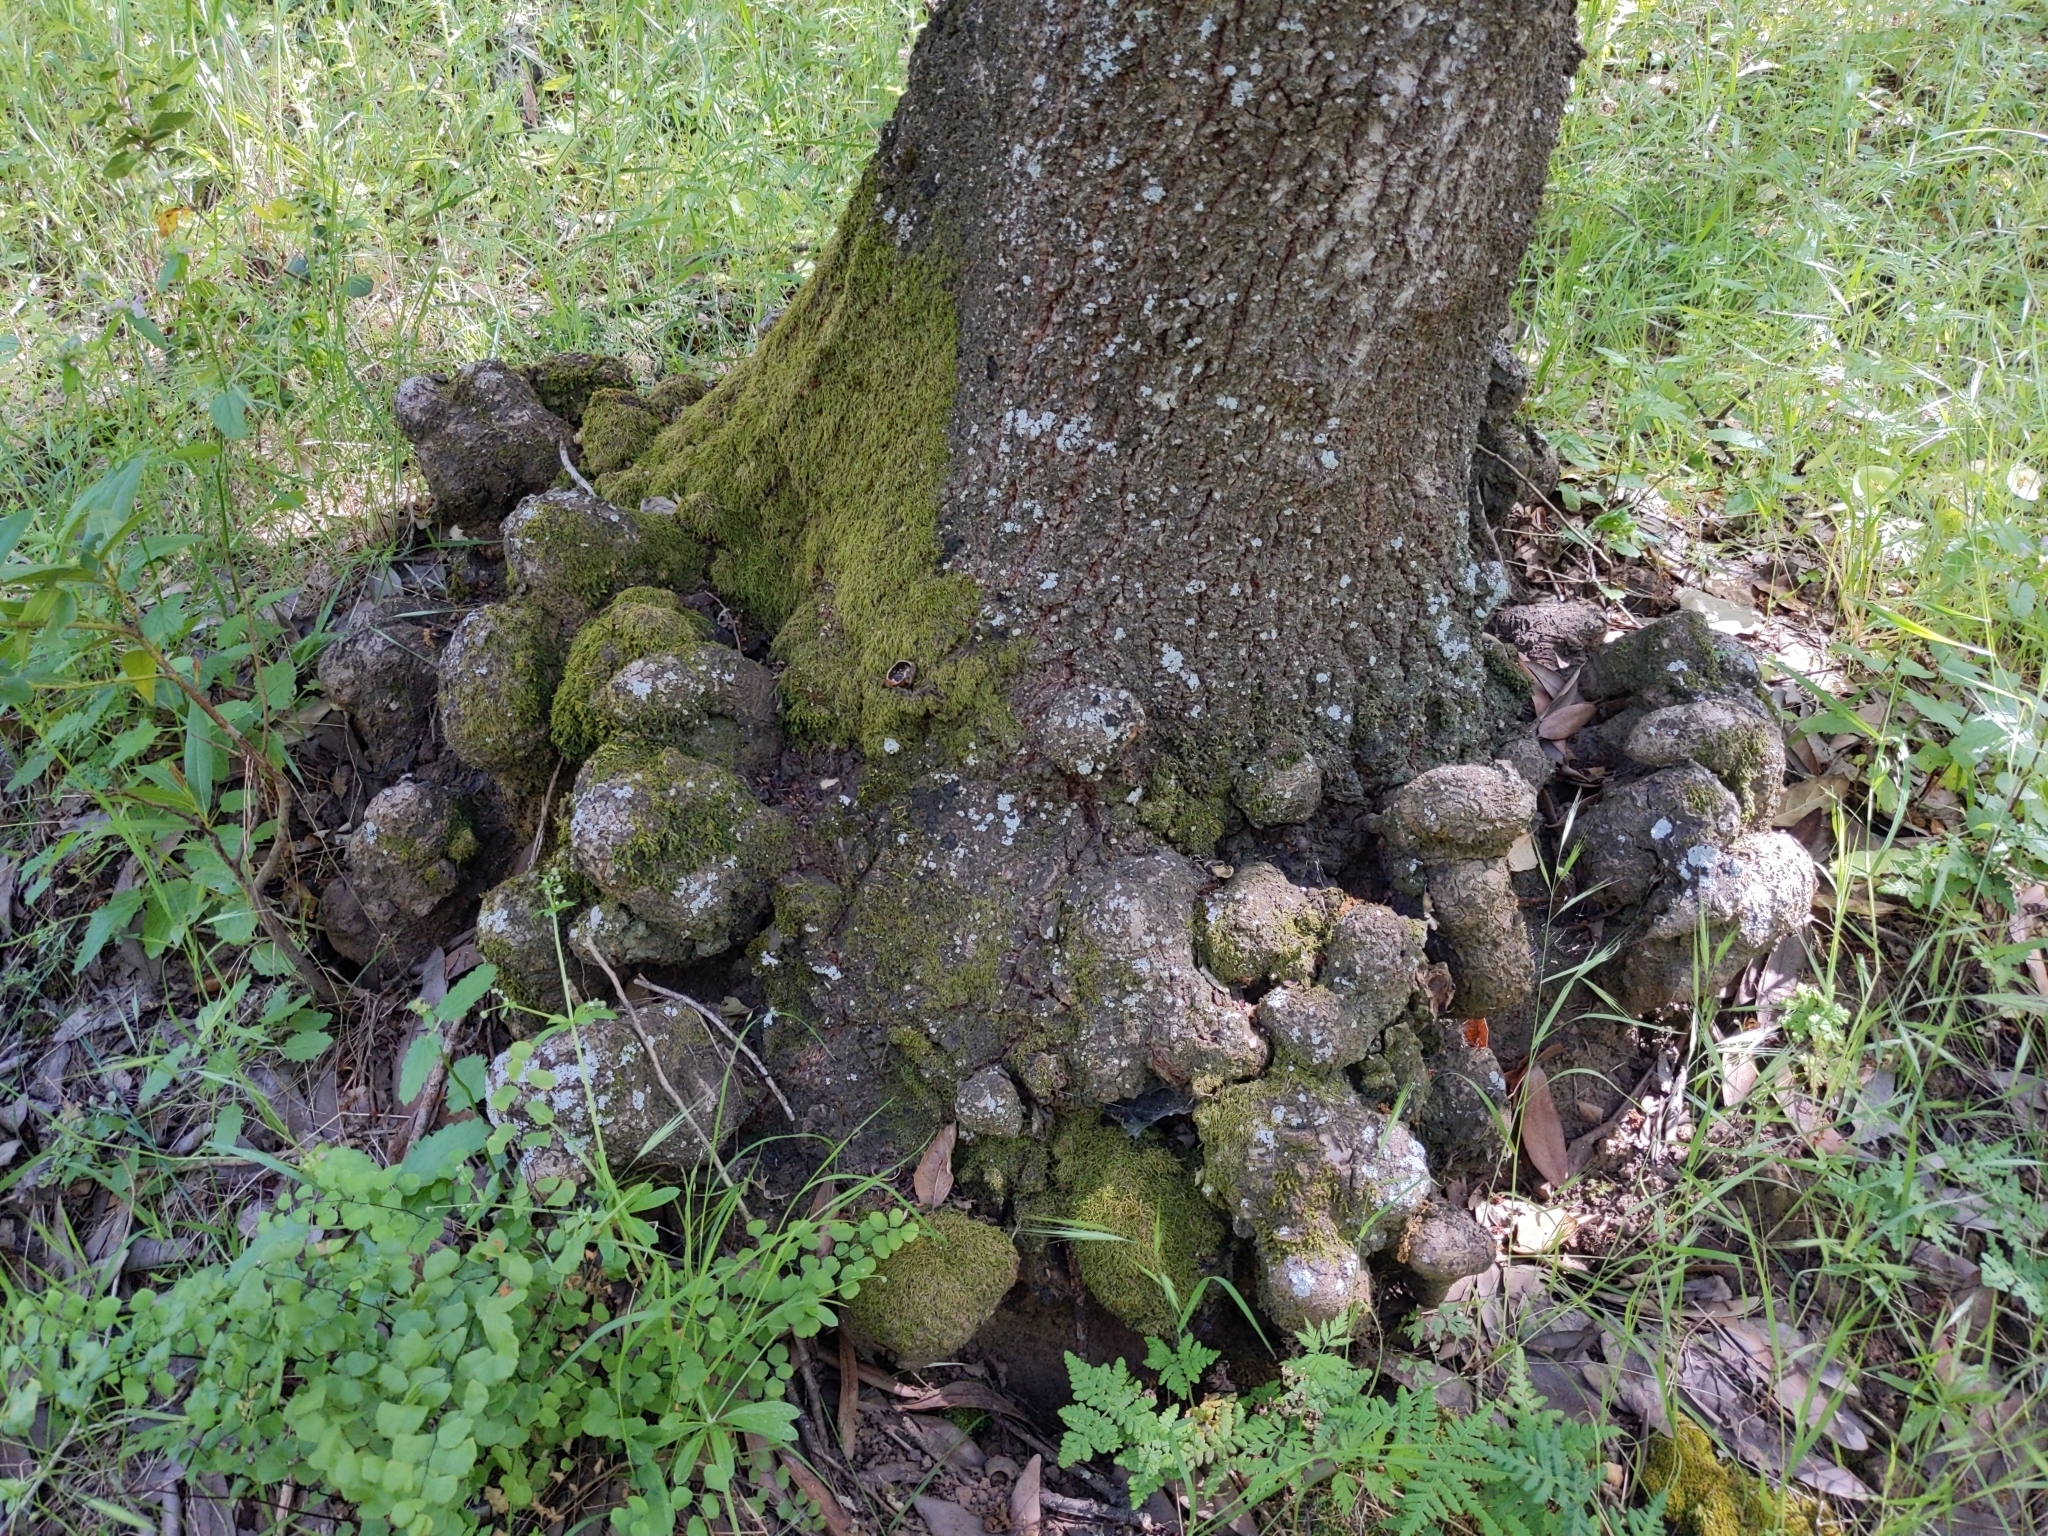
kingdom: Plantae
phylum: Tracheophyta
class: Magnoliopsida
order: Laurales
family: Lauraceae
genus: Umbellularia
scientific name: Umbellularia californica
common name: California bay
